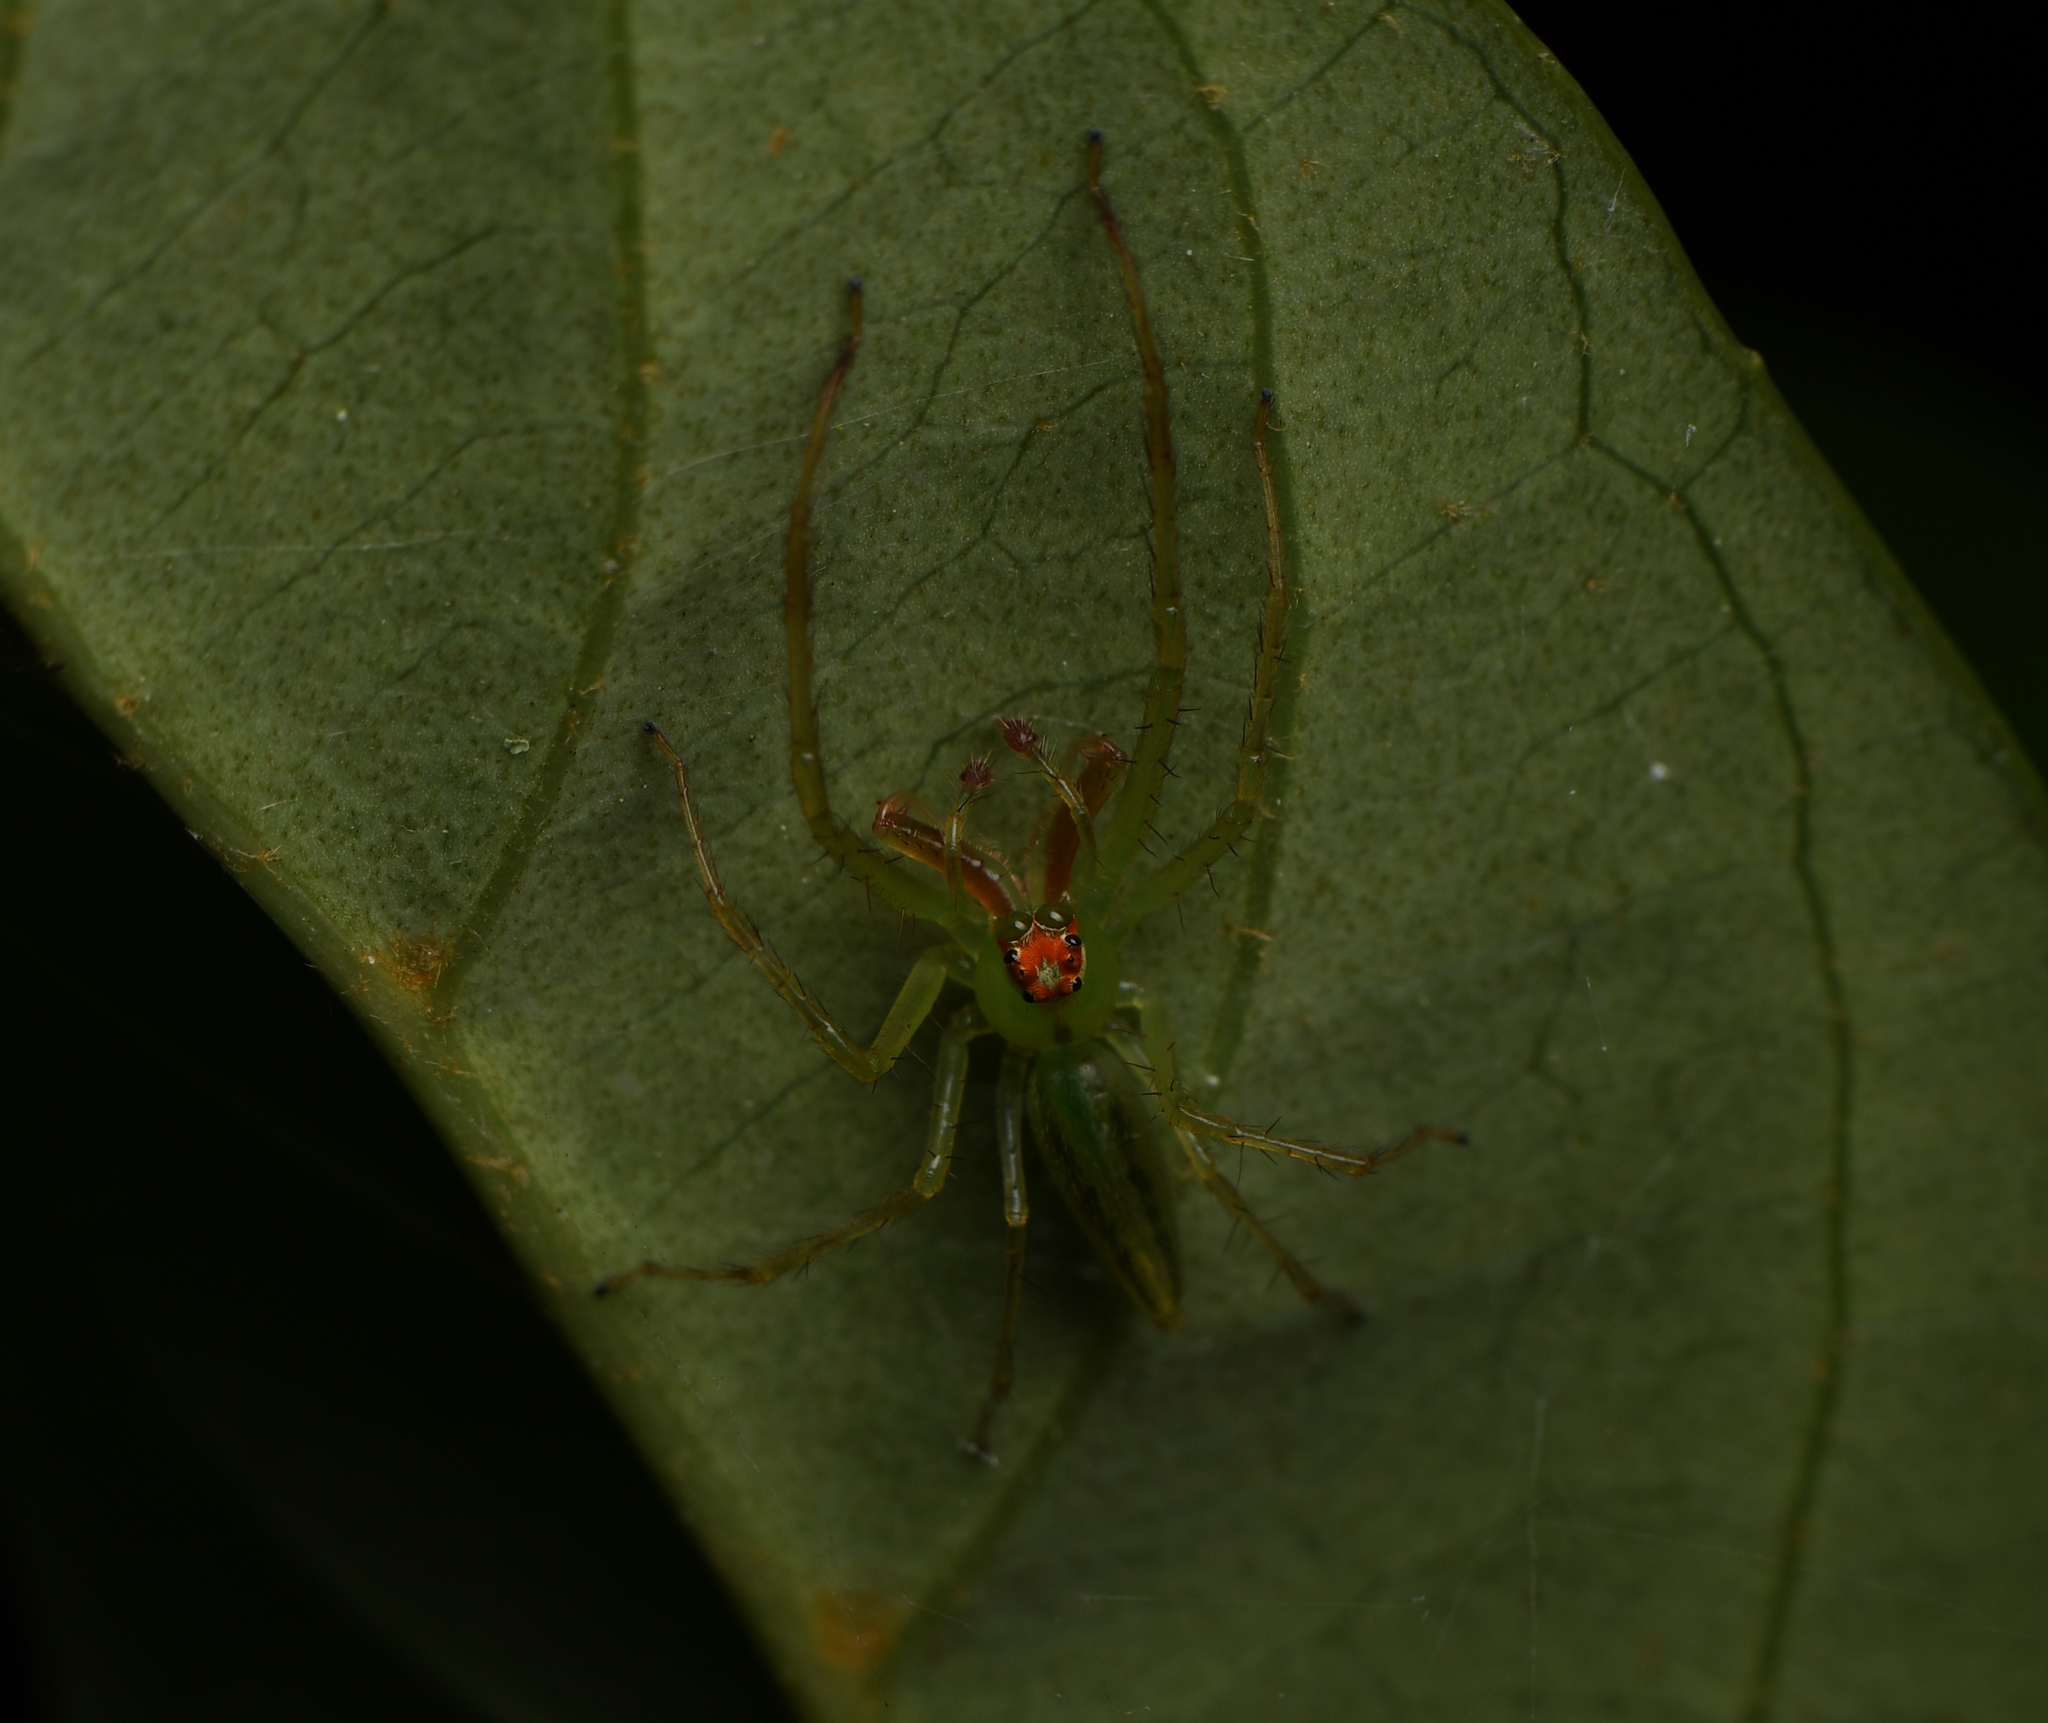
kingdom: Animalia
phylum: Arthropoda
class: Arachnida
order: Araneae
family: Salticidae
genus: Lyssomanes
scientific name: Lyssomanes viridis
